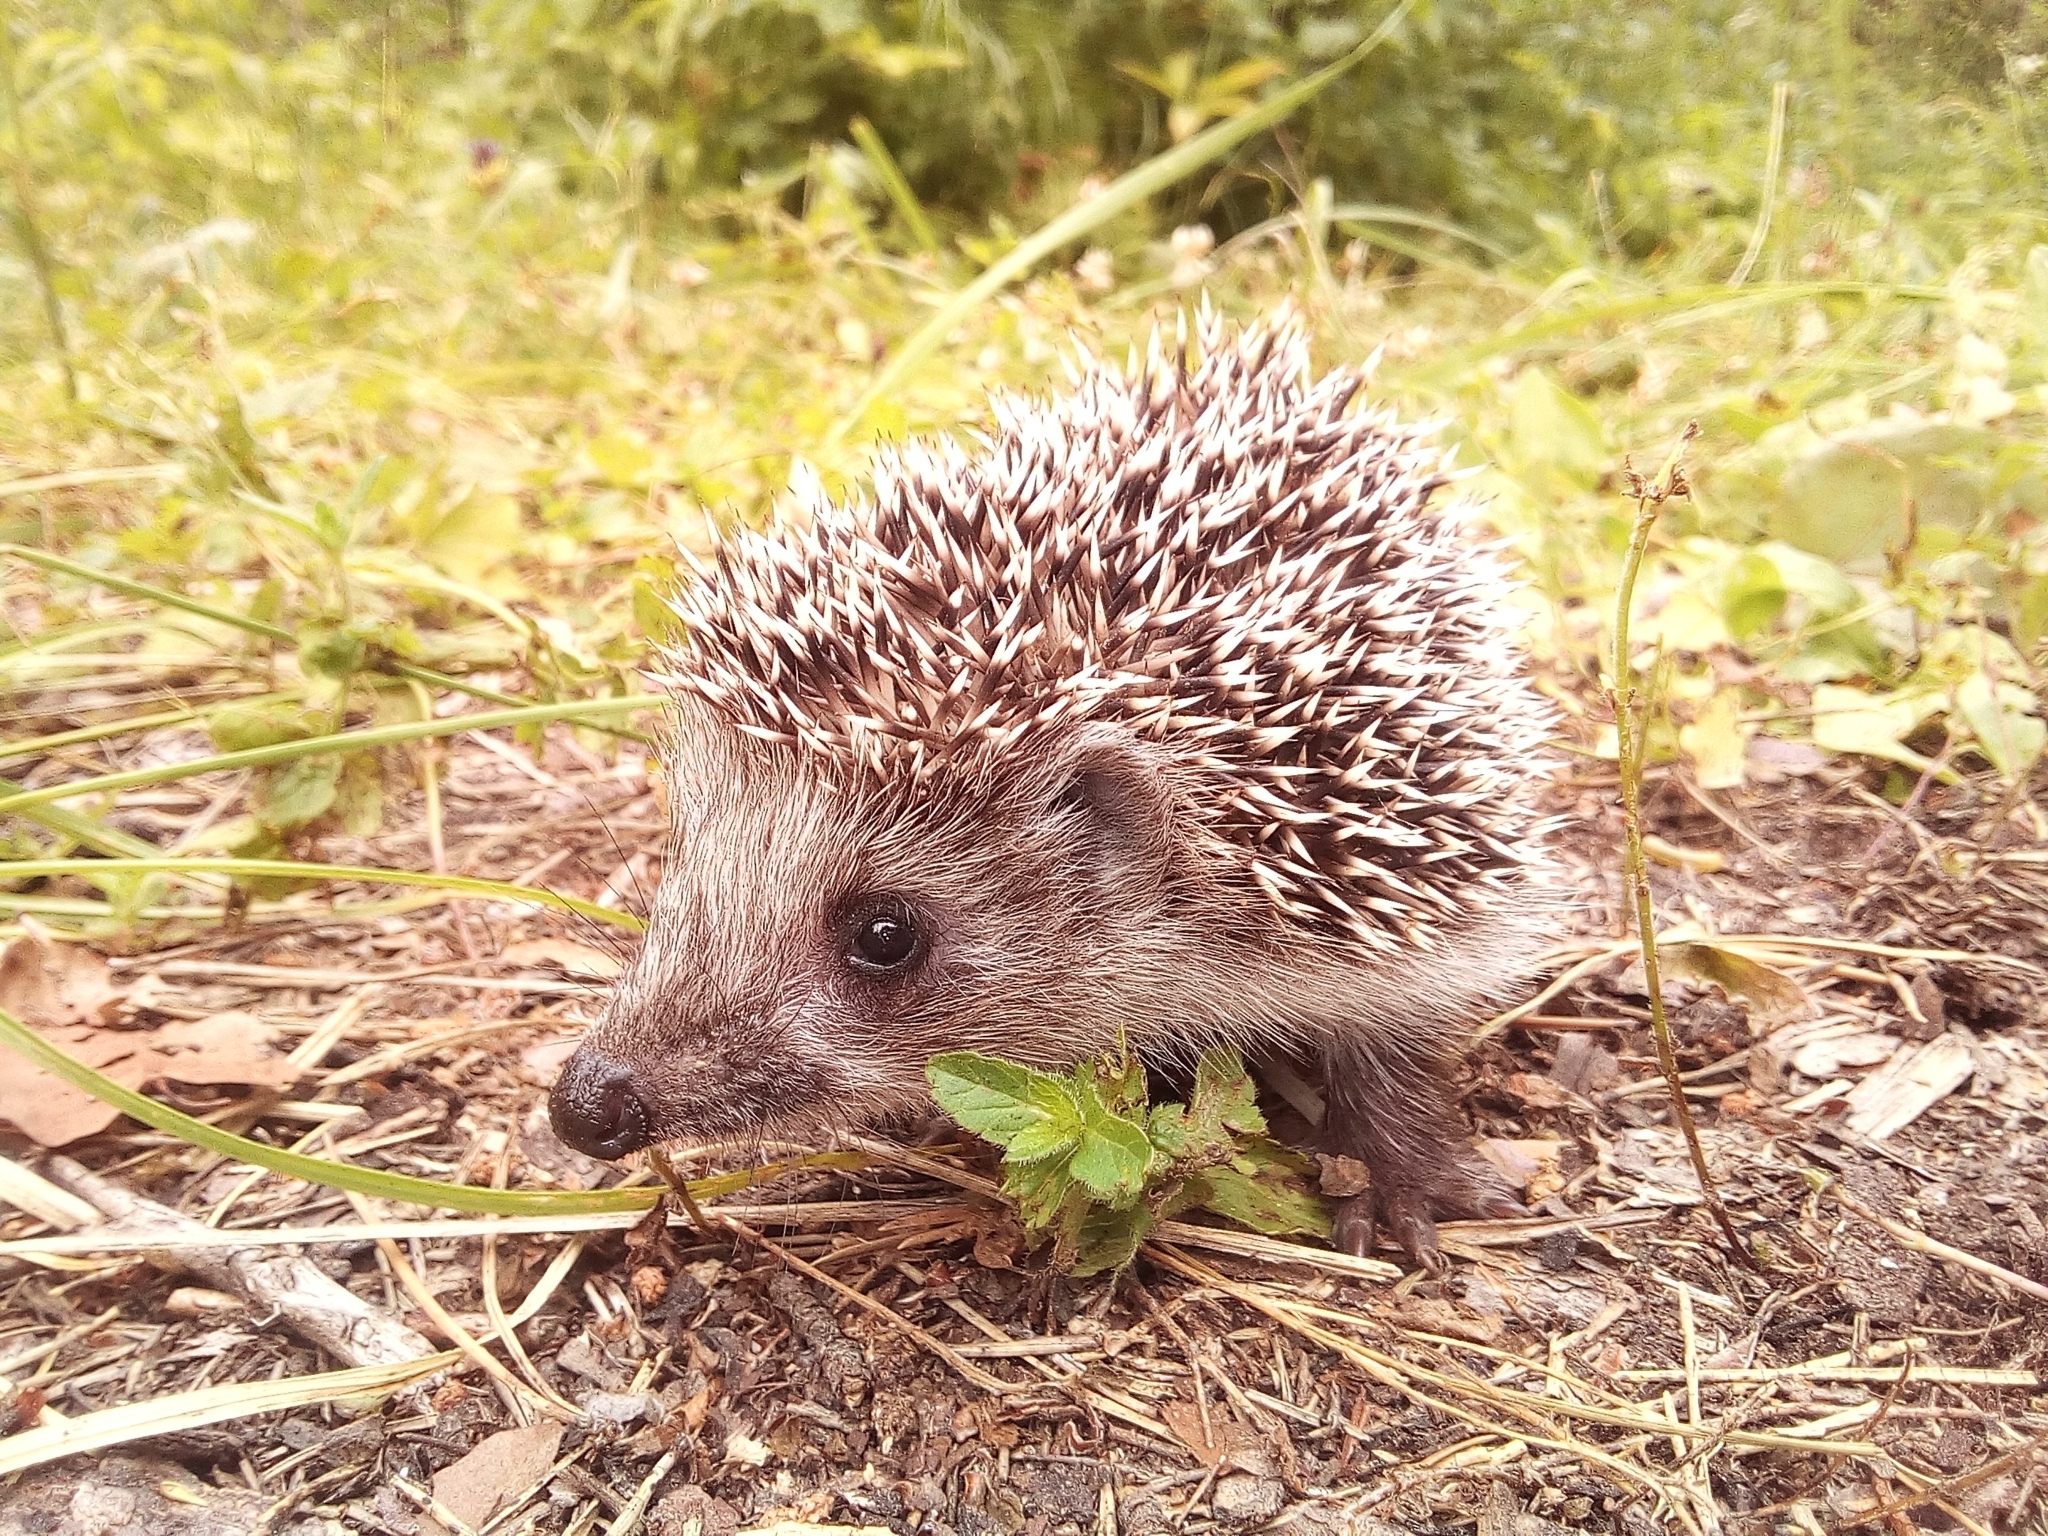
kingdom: Animalia
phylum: Chordata
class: Mammalia
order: Erinaceomorpha
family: Erinaceidae
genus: Erinaceus
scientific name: Erinaceus roumanicus
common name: Northern white-breasted hedgehog
